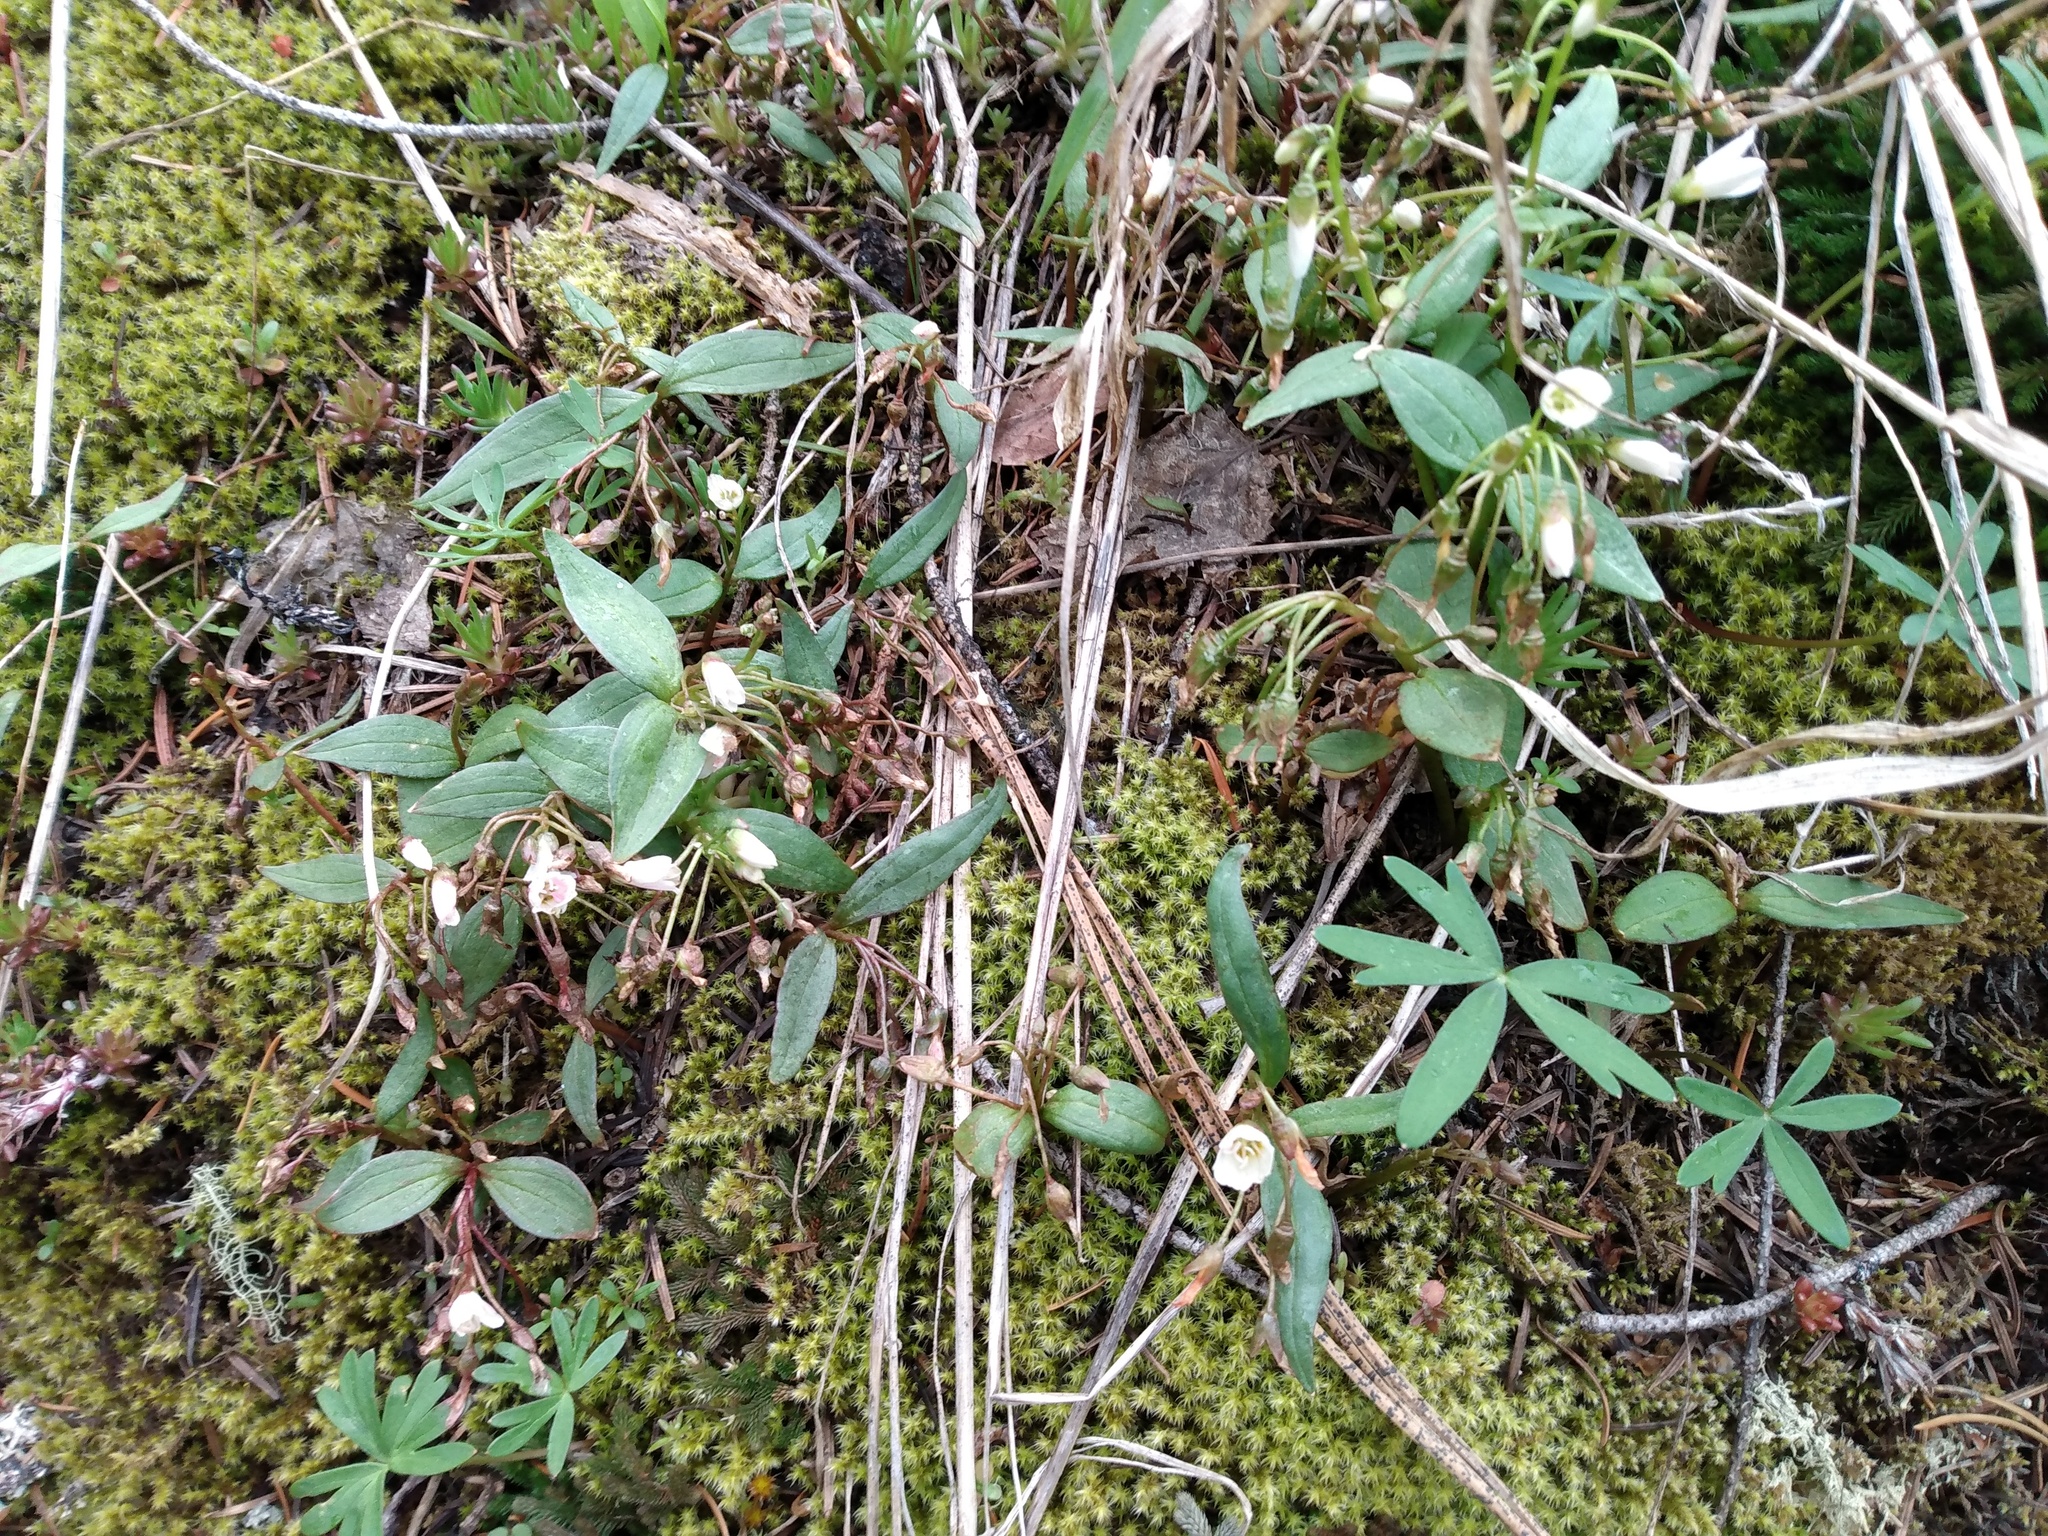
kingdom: Plantae
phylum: Tracheophyta
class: Magnoliopsida
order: Caryophyllales
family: Montiaceae
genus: Claytonia
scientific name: Claytonia lanceolata
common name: Western spring-beauty
